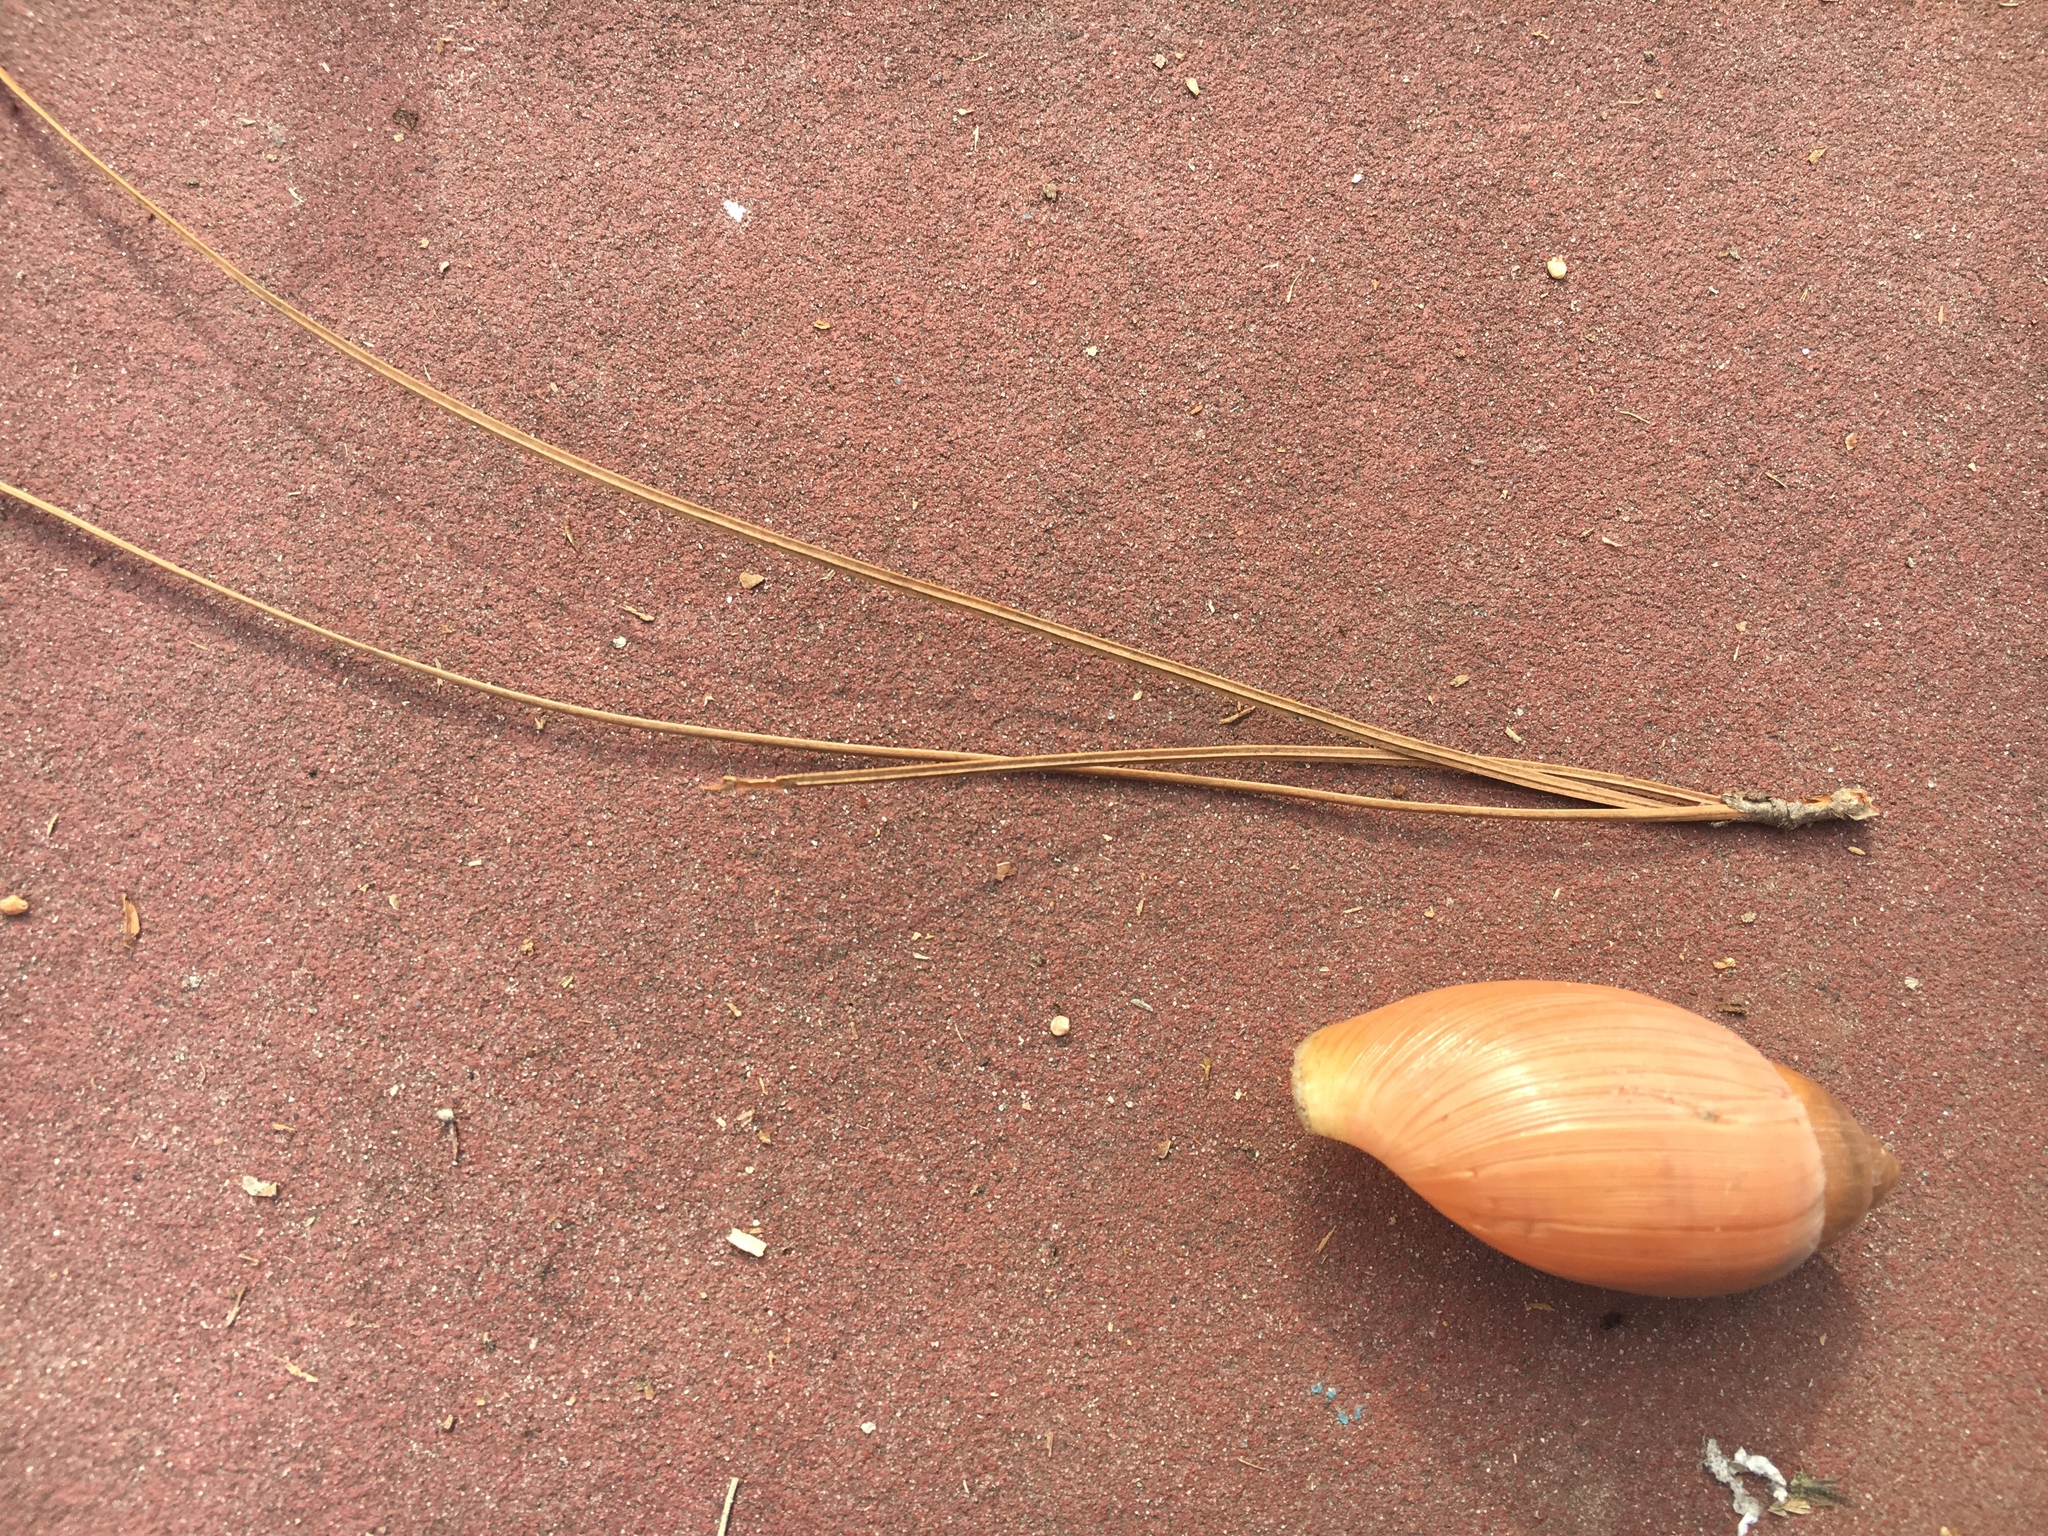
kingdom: Animalia
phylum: Mollusca
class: Gastropoda
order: Stylommatophora
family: Spiraxidae
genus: Euglandina
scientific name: Euglandina rosea
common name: Rosy wolfsnail
